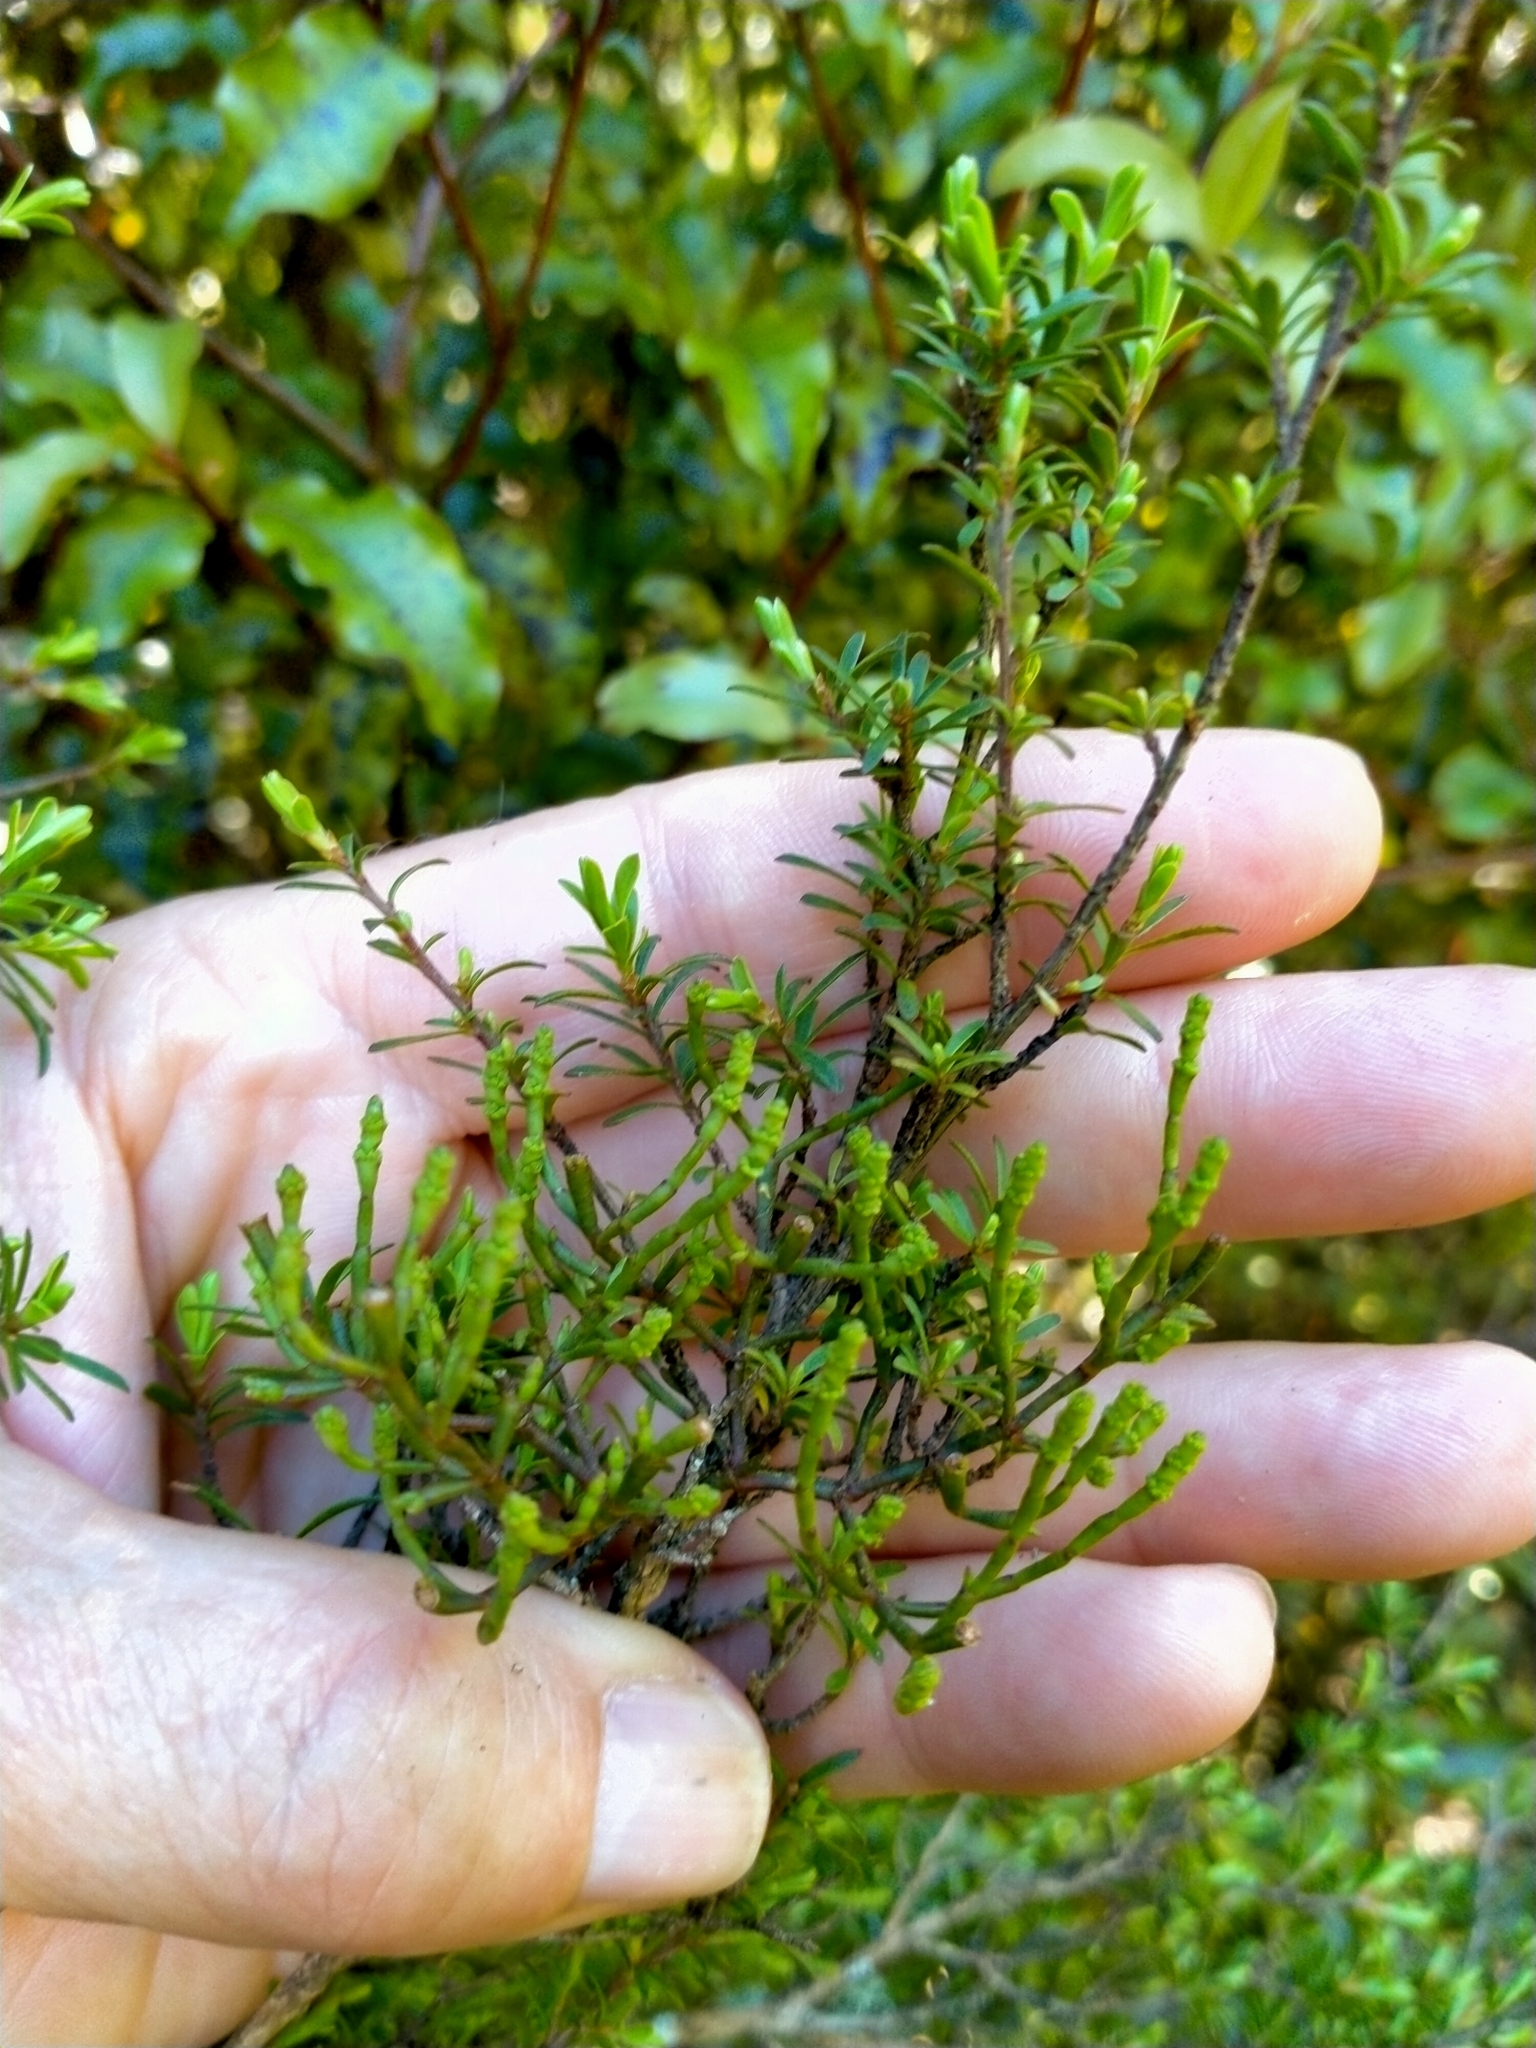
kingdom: Plantae
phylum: Tracheophyta
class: Magnoliopsida
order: Santalales
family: Viscaceae
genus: Korthalsella
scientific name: Korthalsella salicornioides
